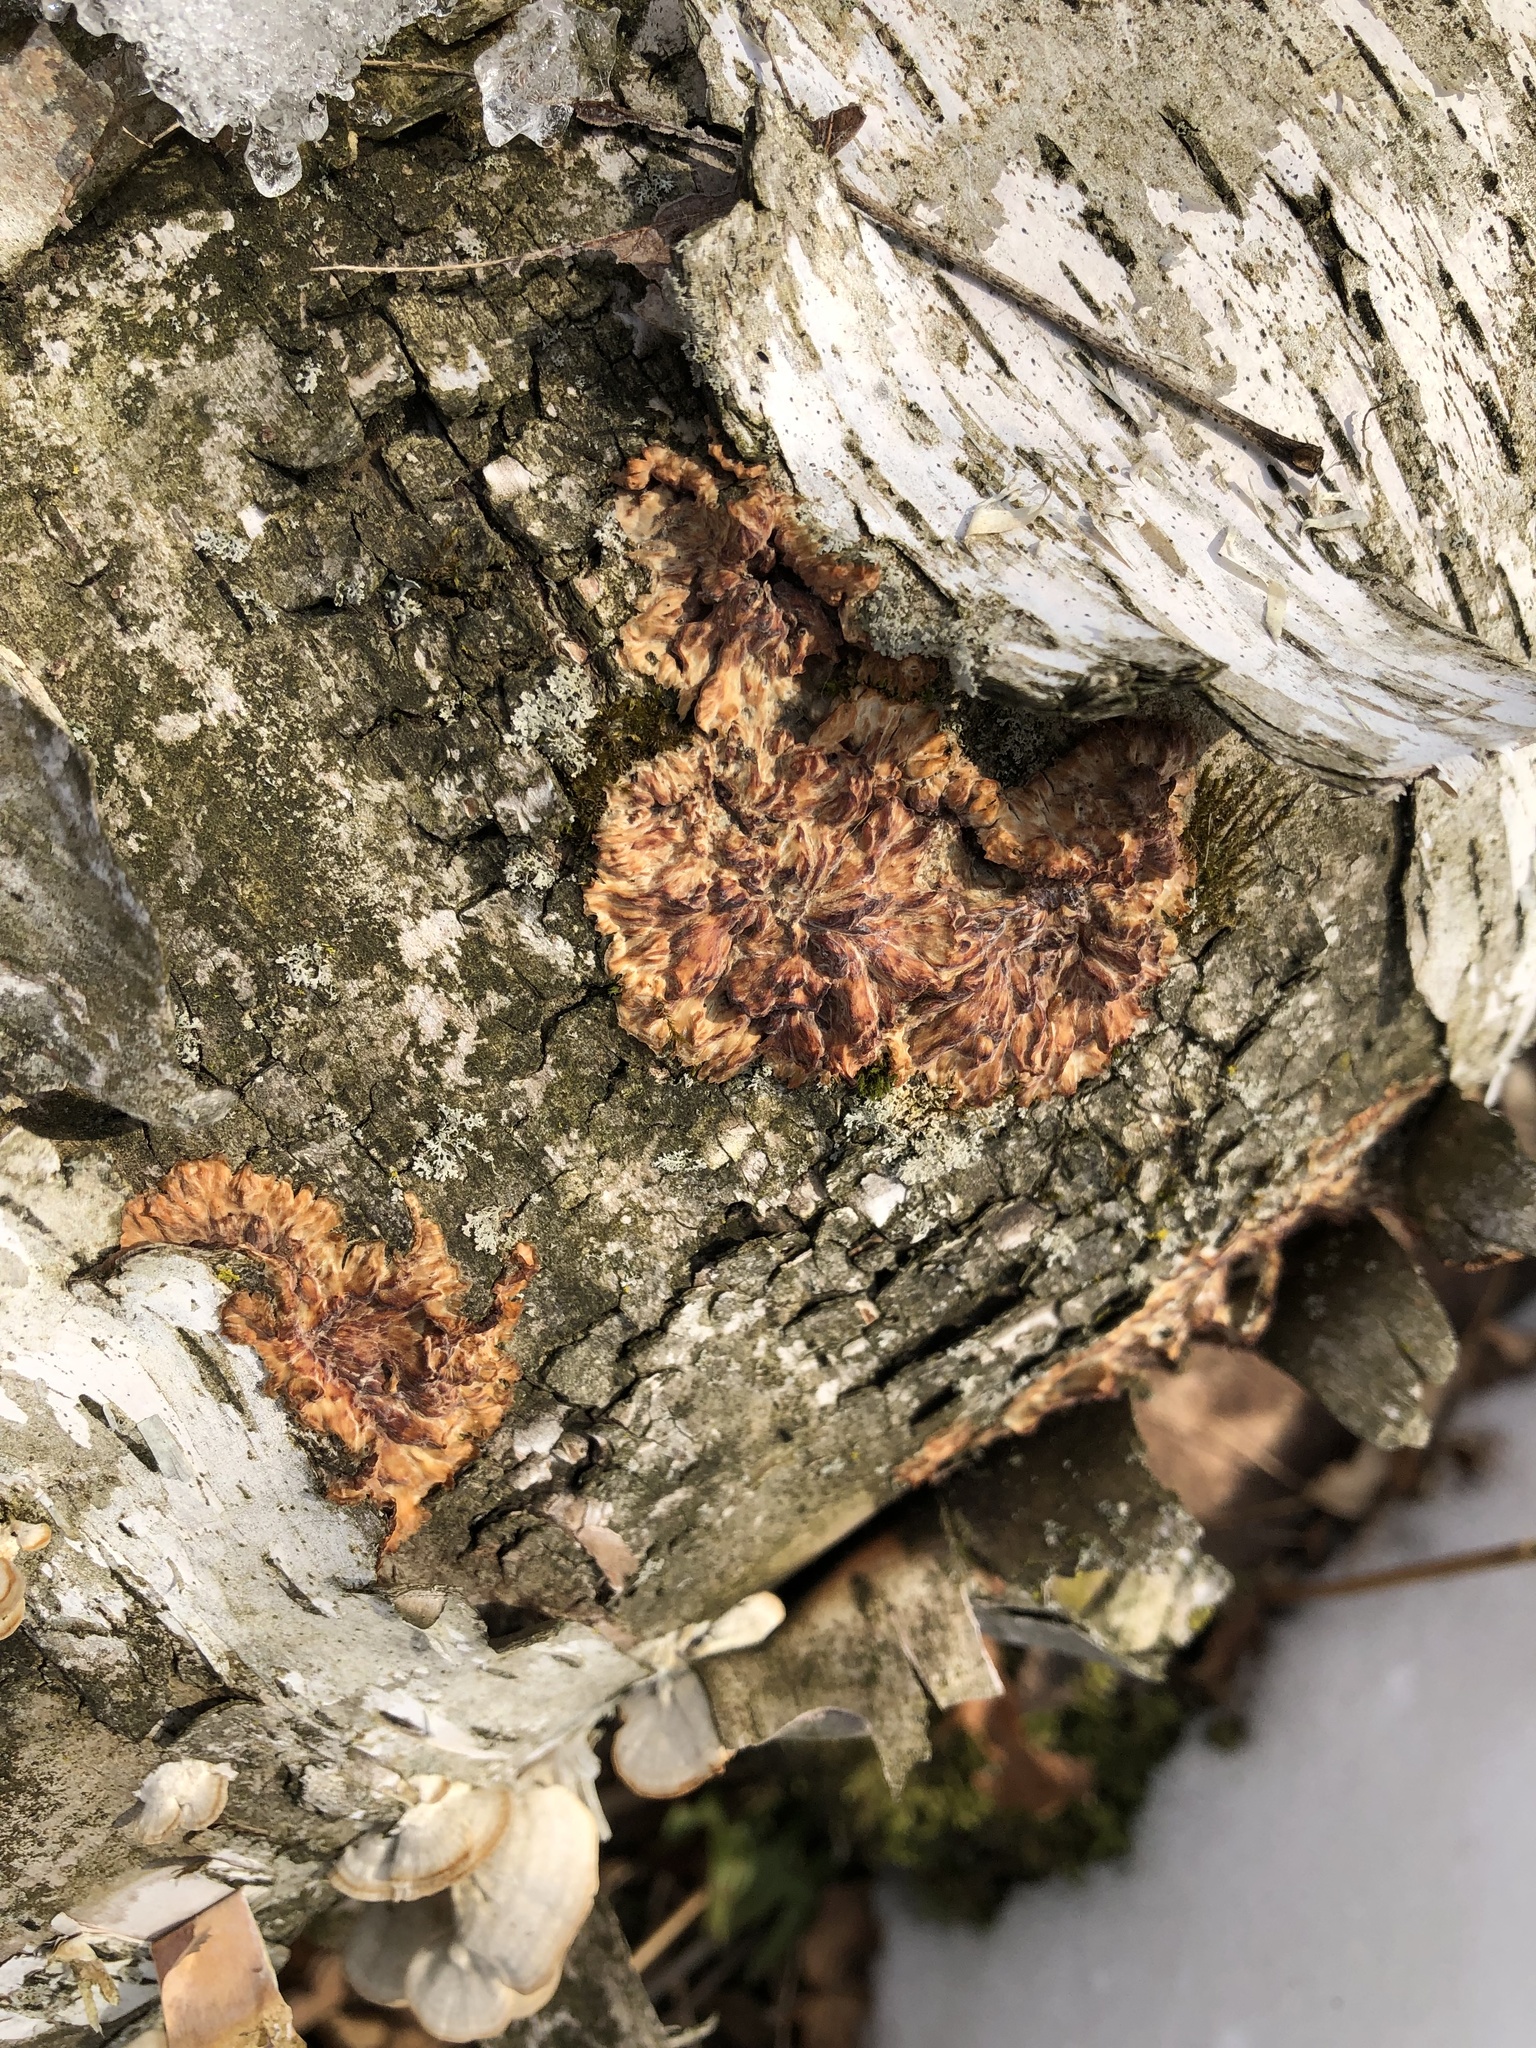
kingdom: Fungi
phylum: Basidiomycota
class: Agaricomycetes
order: Polyporales
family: Meruliaceae
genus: Phlebia
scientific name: Phlebia radiata
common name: Wrinkled crust
